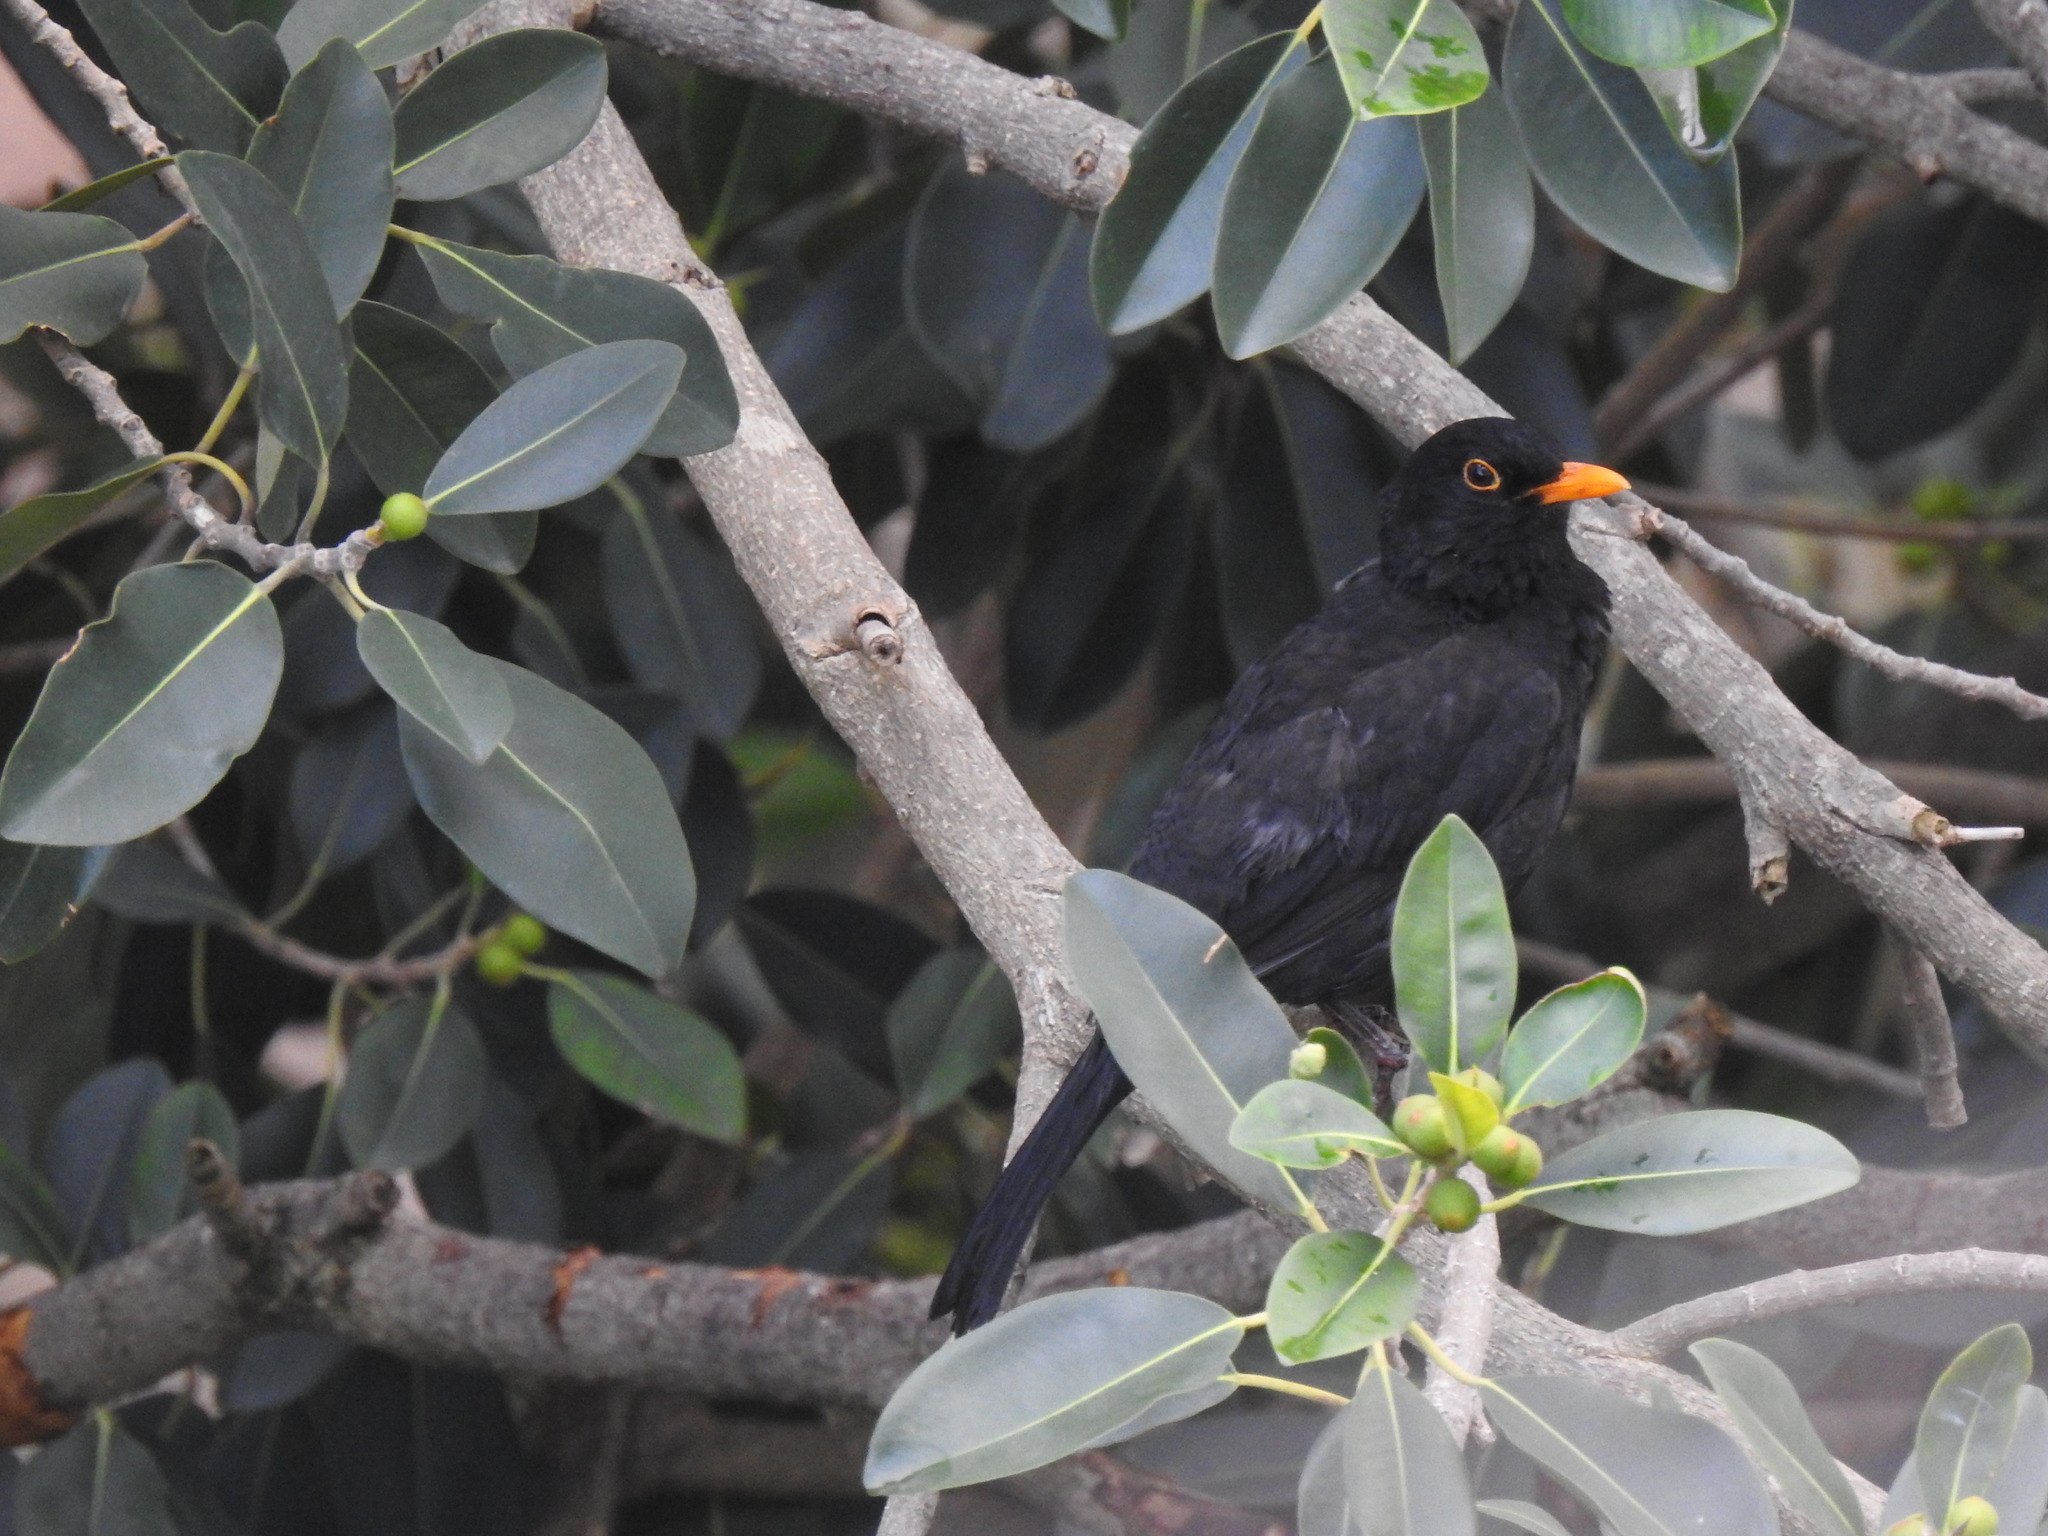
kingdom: Animalia
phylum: Chordata
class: Aves
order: Passeriformes
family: Turdidae
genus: Turdus
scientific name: Turdus merula
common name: Common blackbird
